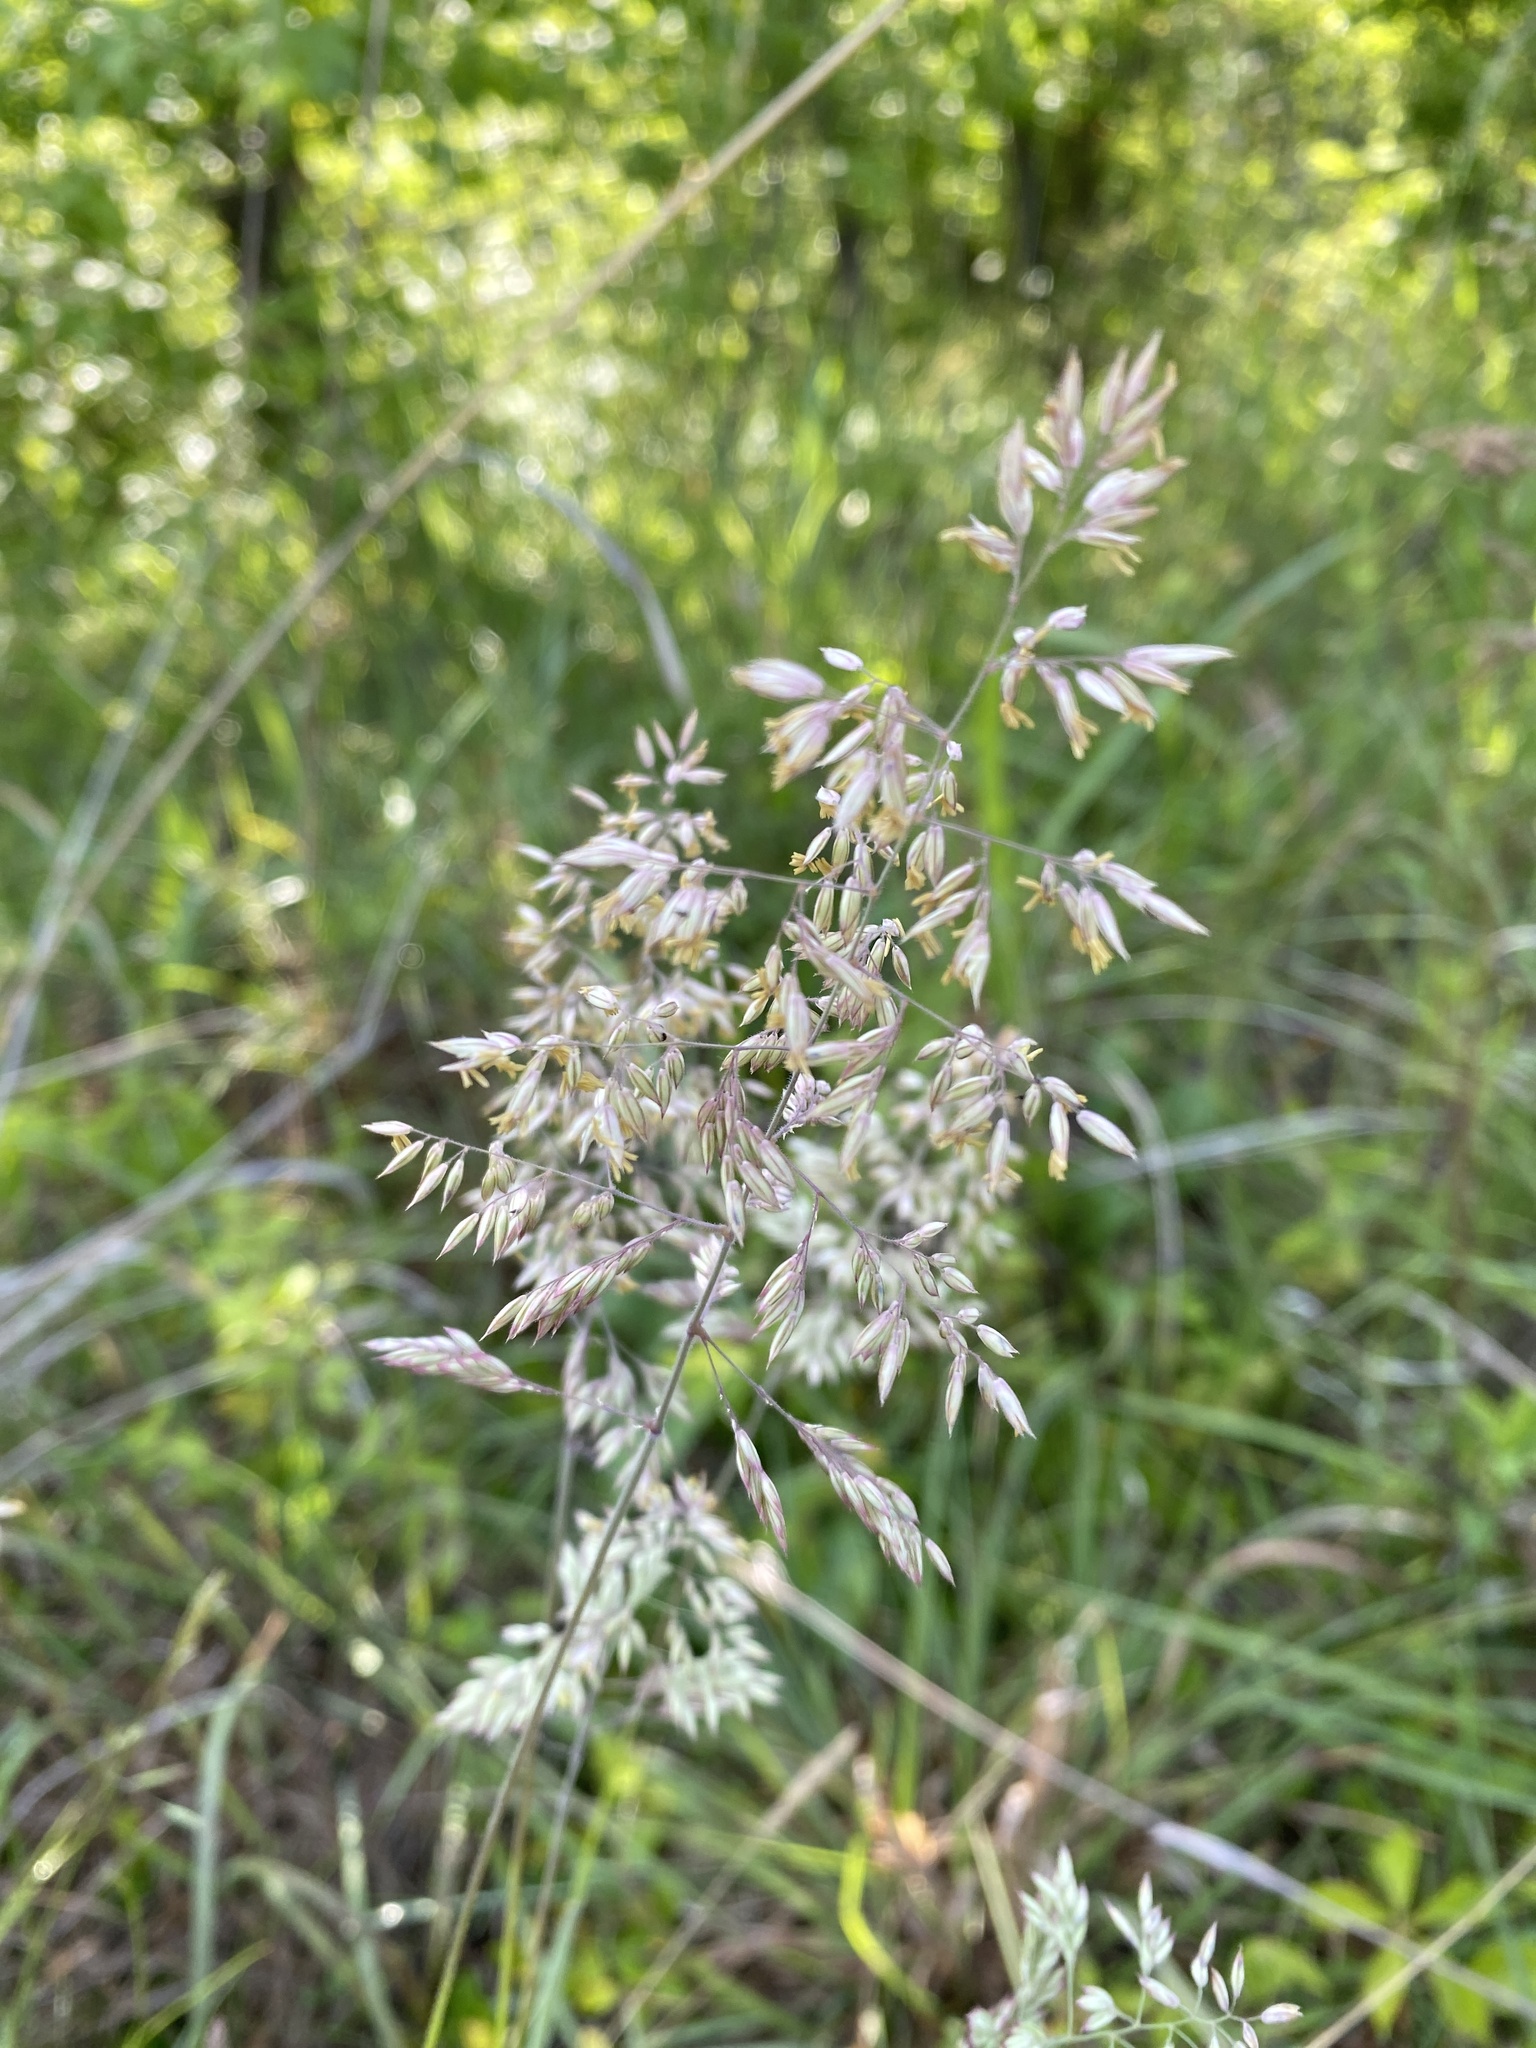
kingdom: Plantae
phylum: Tracheophyta
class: Liliopsida
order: Poales
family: Poaceae
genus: Holcus
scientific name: Holcus lanatus
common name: Yorkshire-fog
